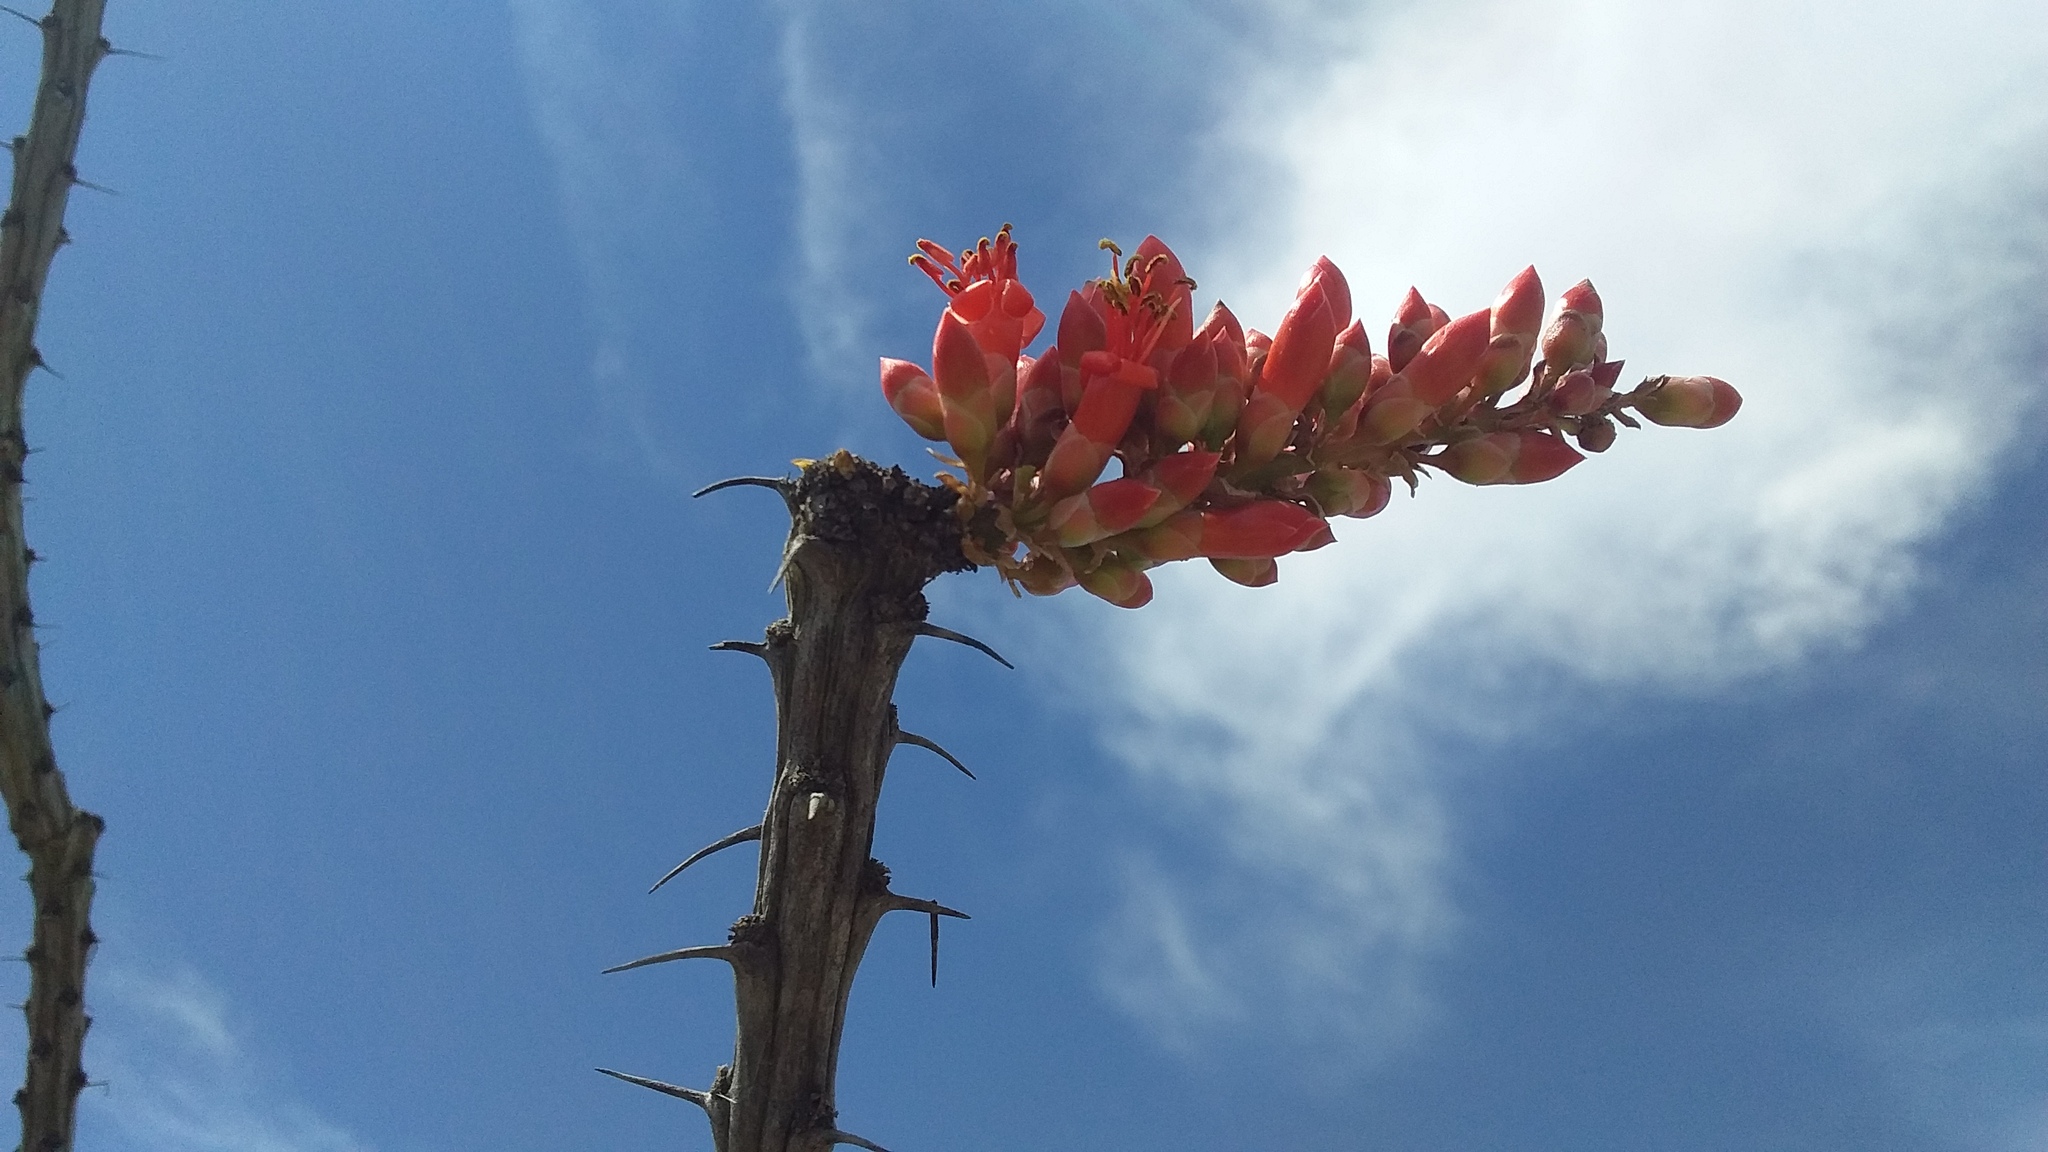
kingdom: Plantae
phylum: Tracheophyta
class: Magnoliopsida
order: Ericales
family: Fouquieriaceae
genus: Fouquieria
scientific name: Fouquieria splendens
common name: Vine-cactus
